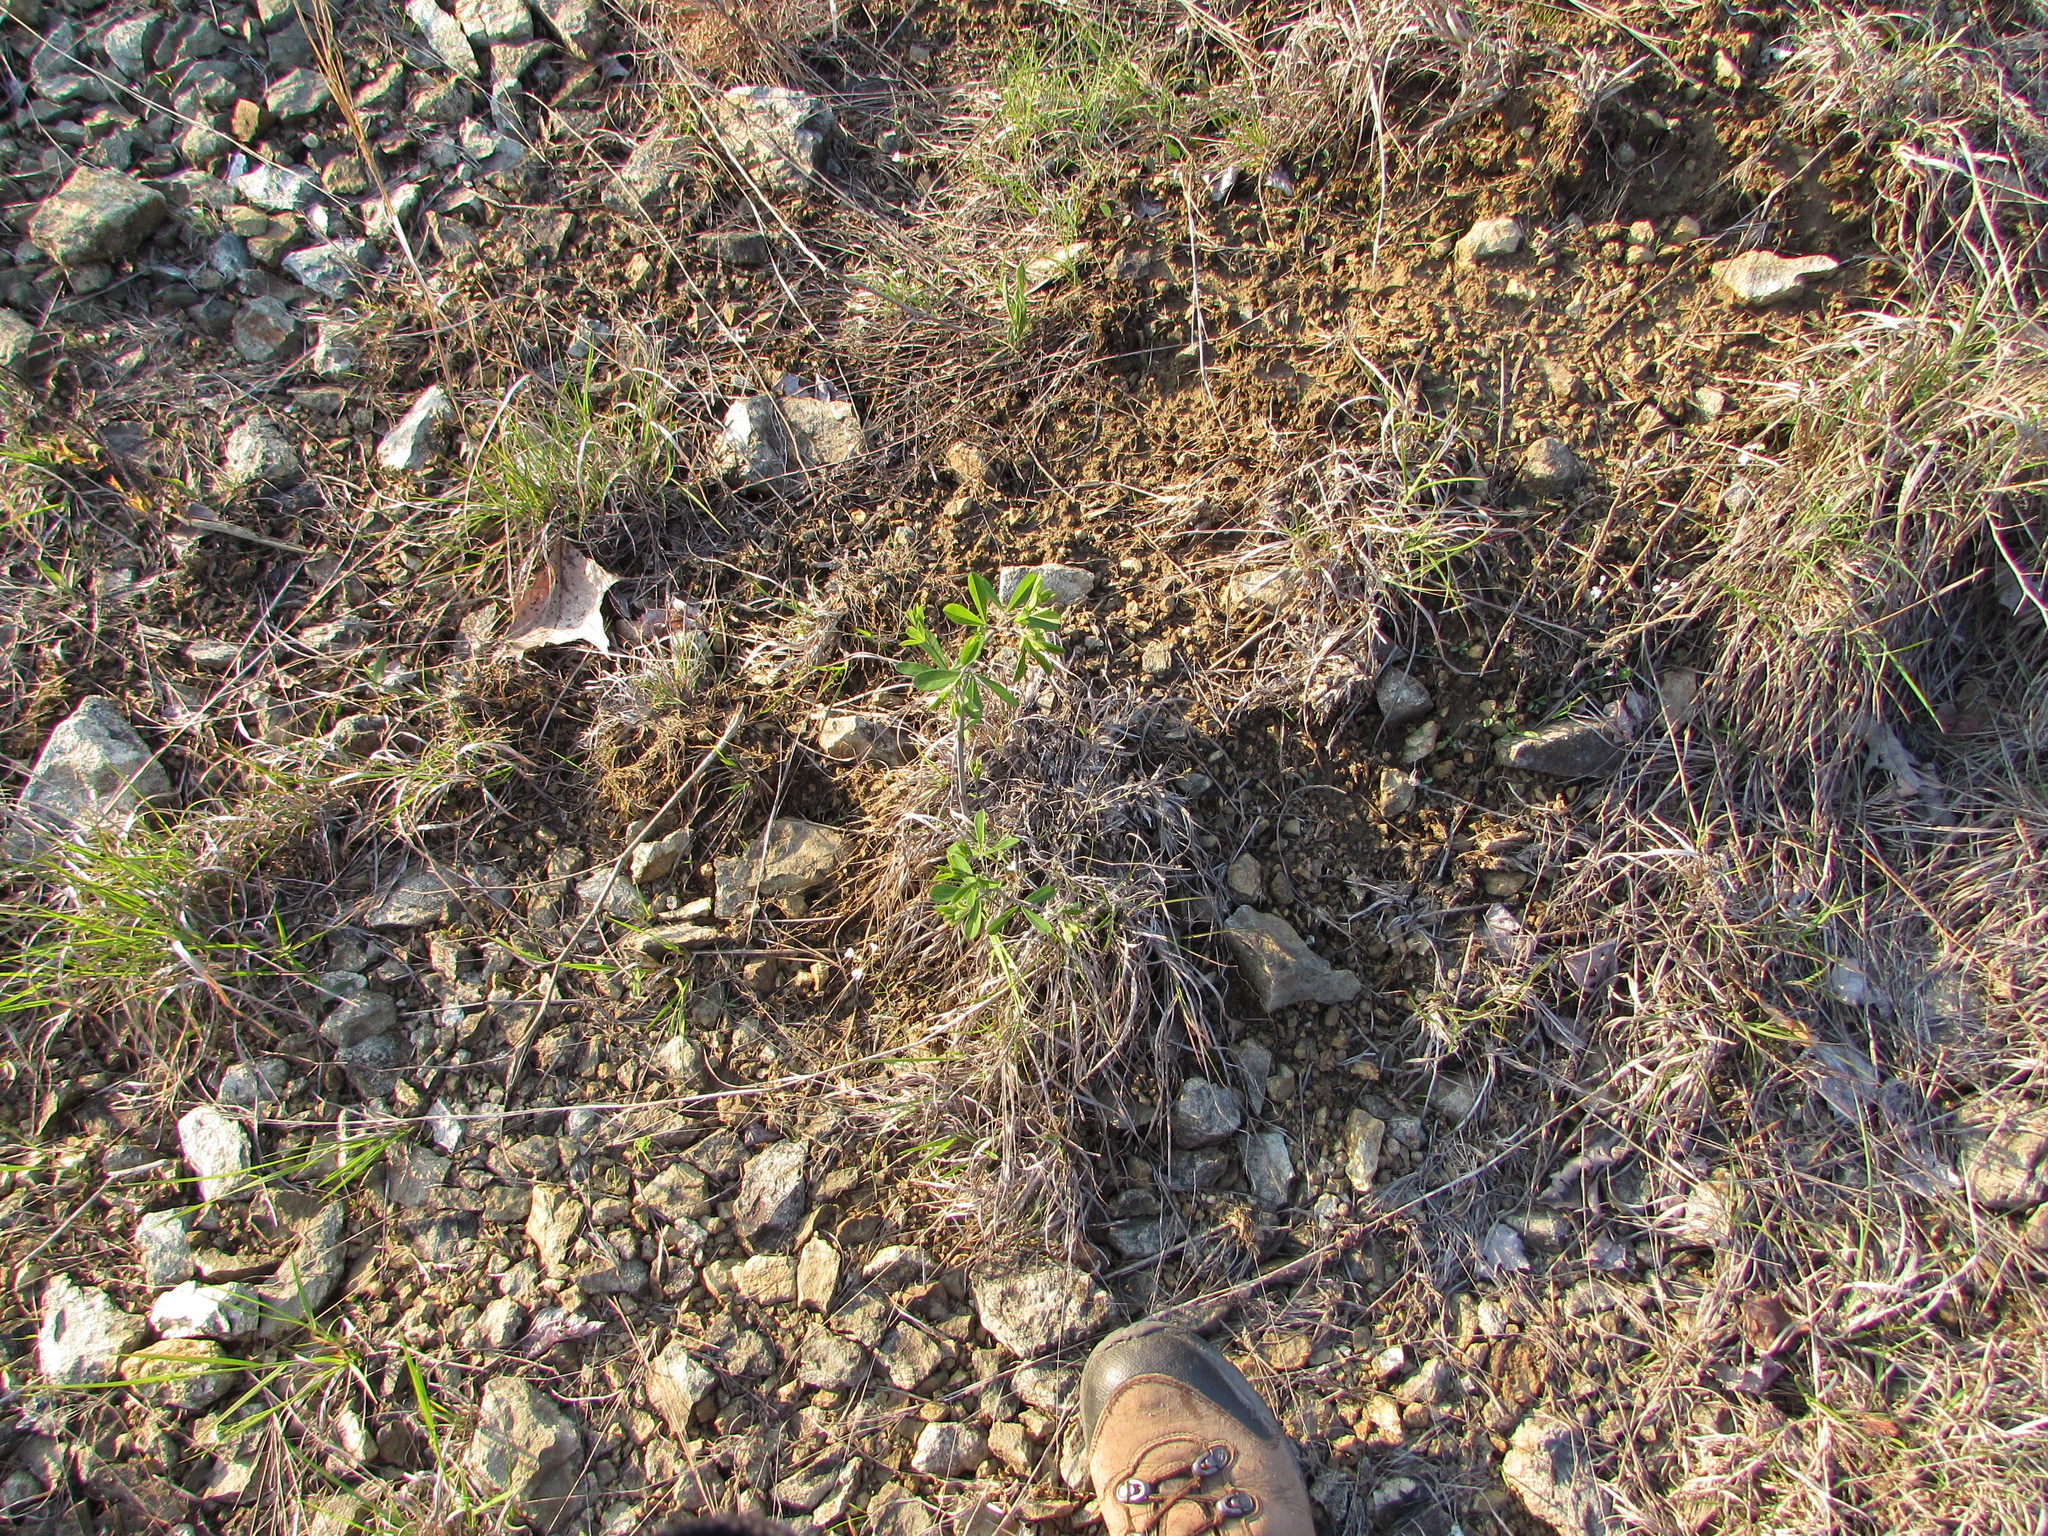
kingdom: Plantae
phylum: Tracheophyta
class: Magnoliopsida
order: Fabales
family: Fabaceae
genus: Baptisia
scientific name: Baptisia tinctoria
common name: Wild indigo
